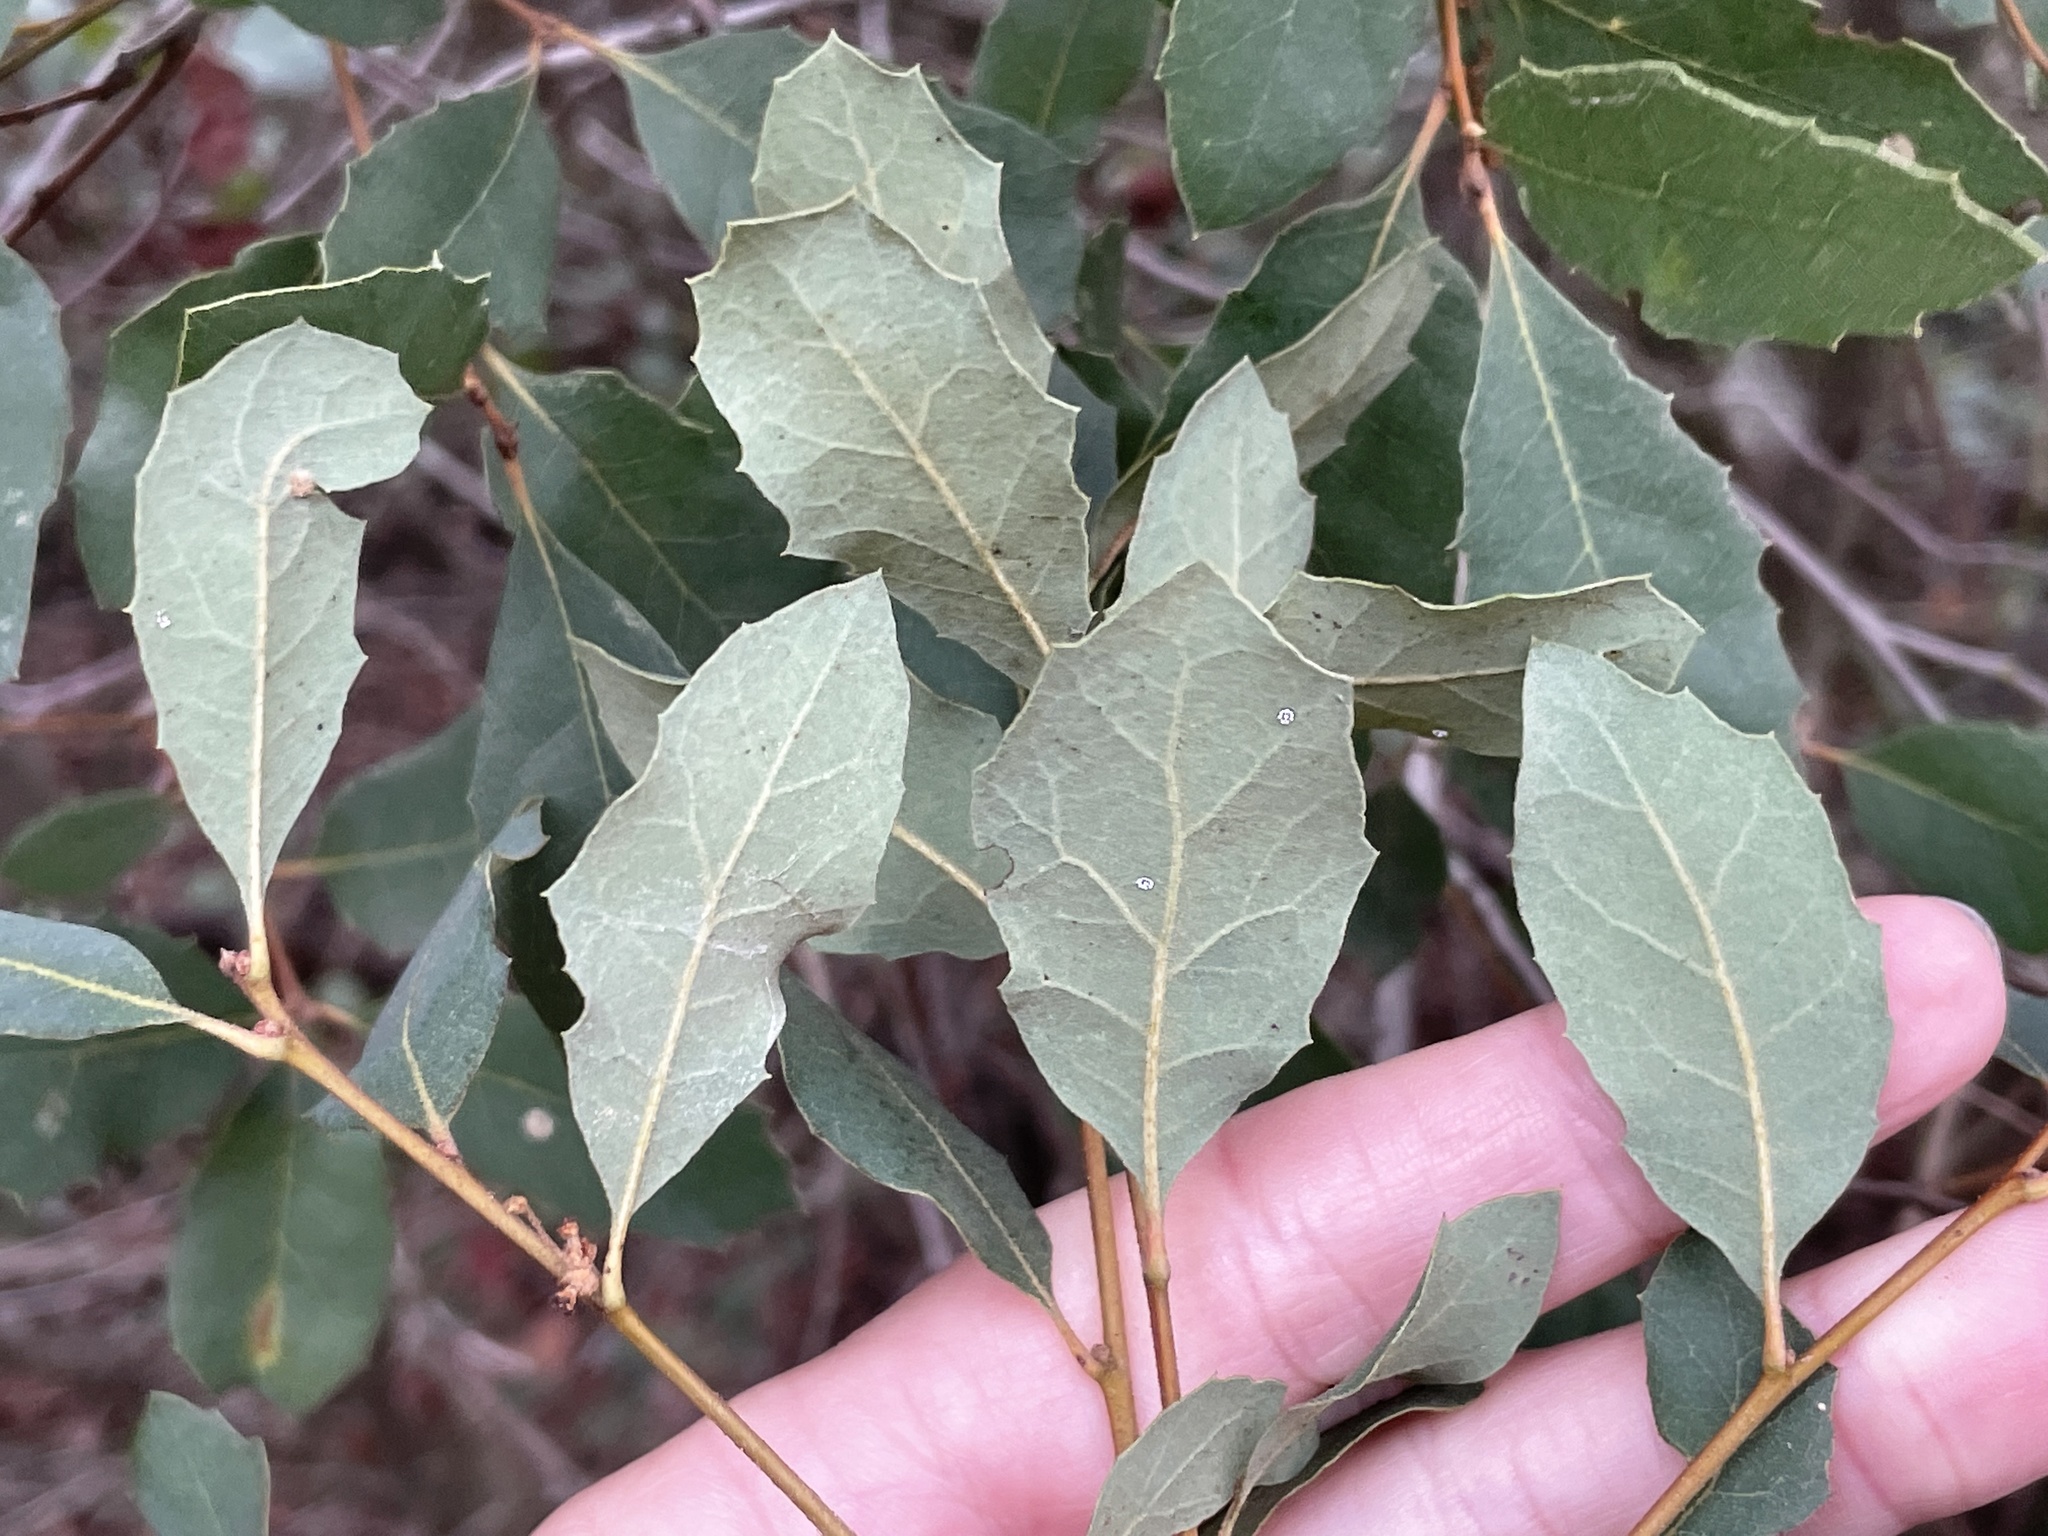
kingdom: Plantae
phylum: Tracheophyta
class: Magnoliopsida
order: Fagales
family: Fagaceae
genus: Quercus
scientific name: Quercus engelmannii
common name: Engelmann oak
